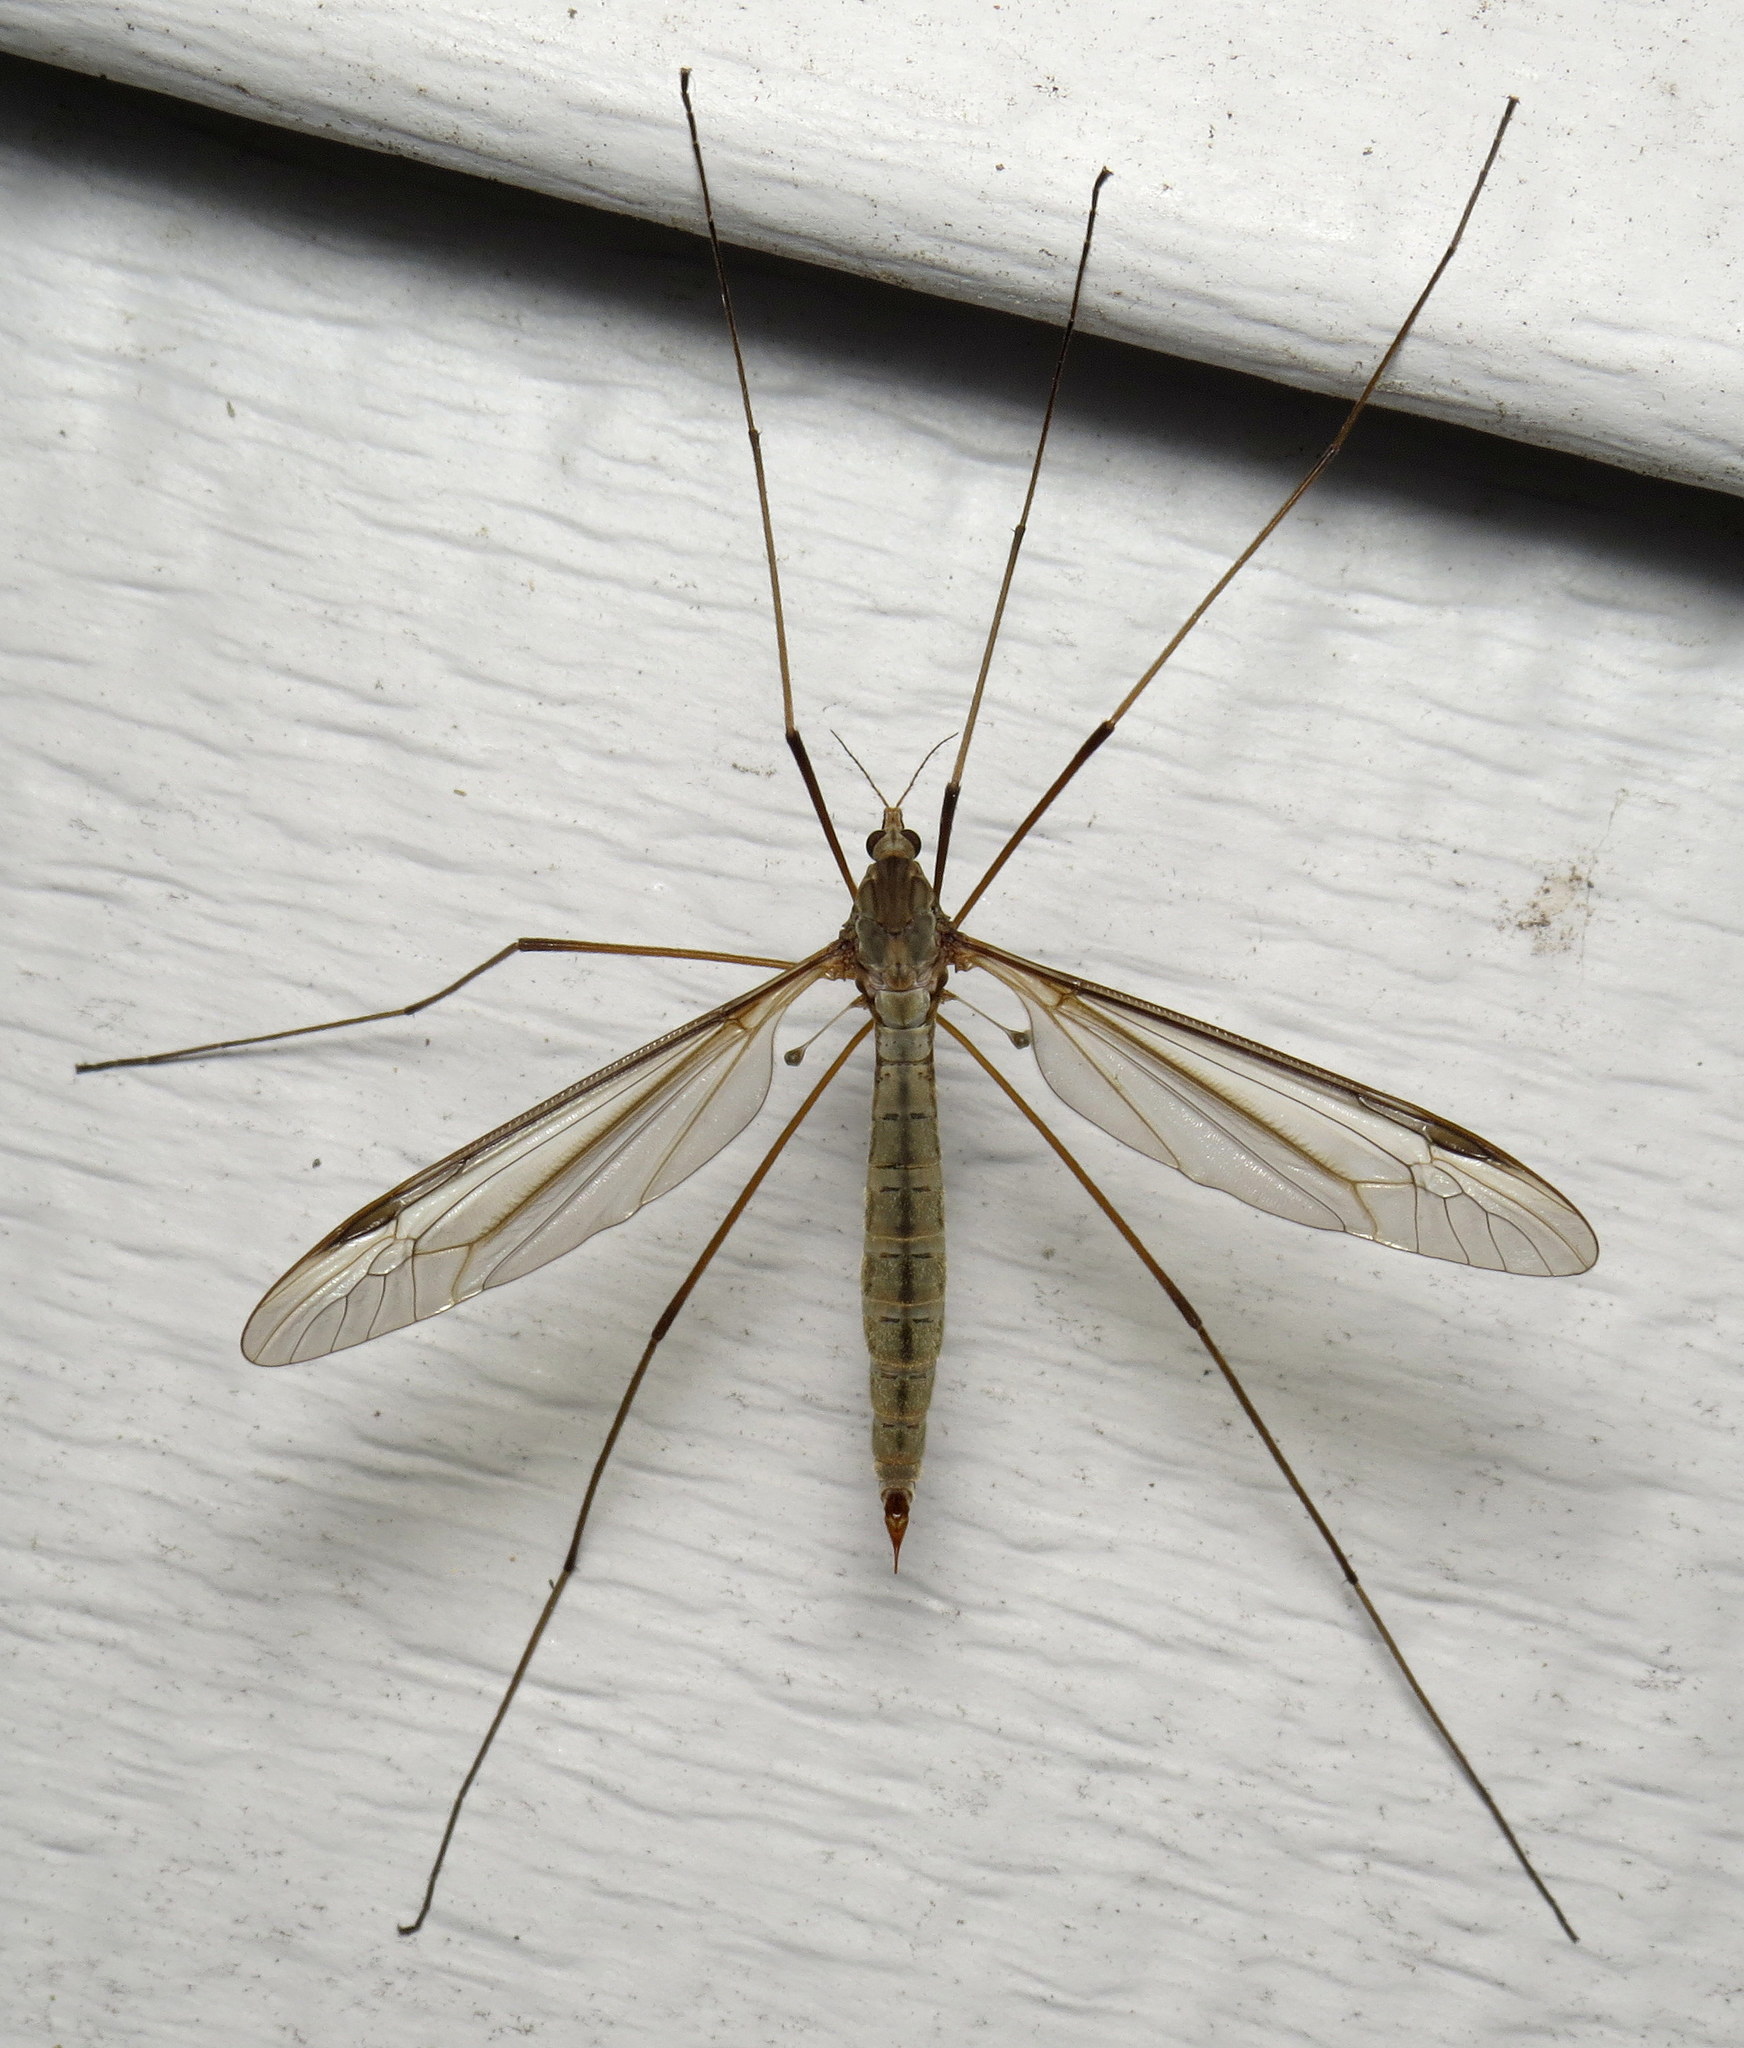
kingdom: Animalia
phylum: Arthropoda
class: Insecta
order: Diptera
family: Tipulidae
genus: Tipula
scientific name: Tipula oleracea
